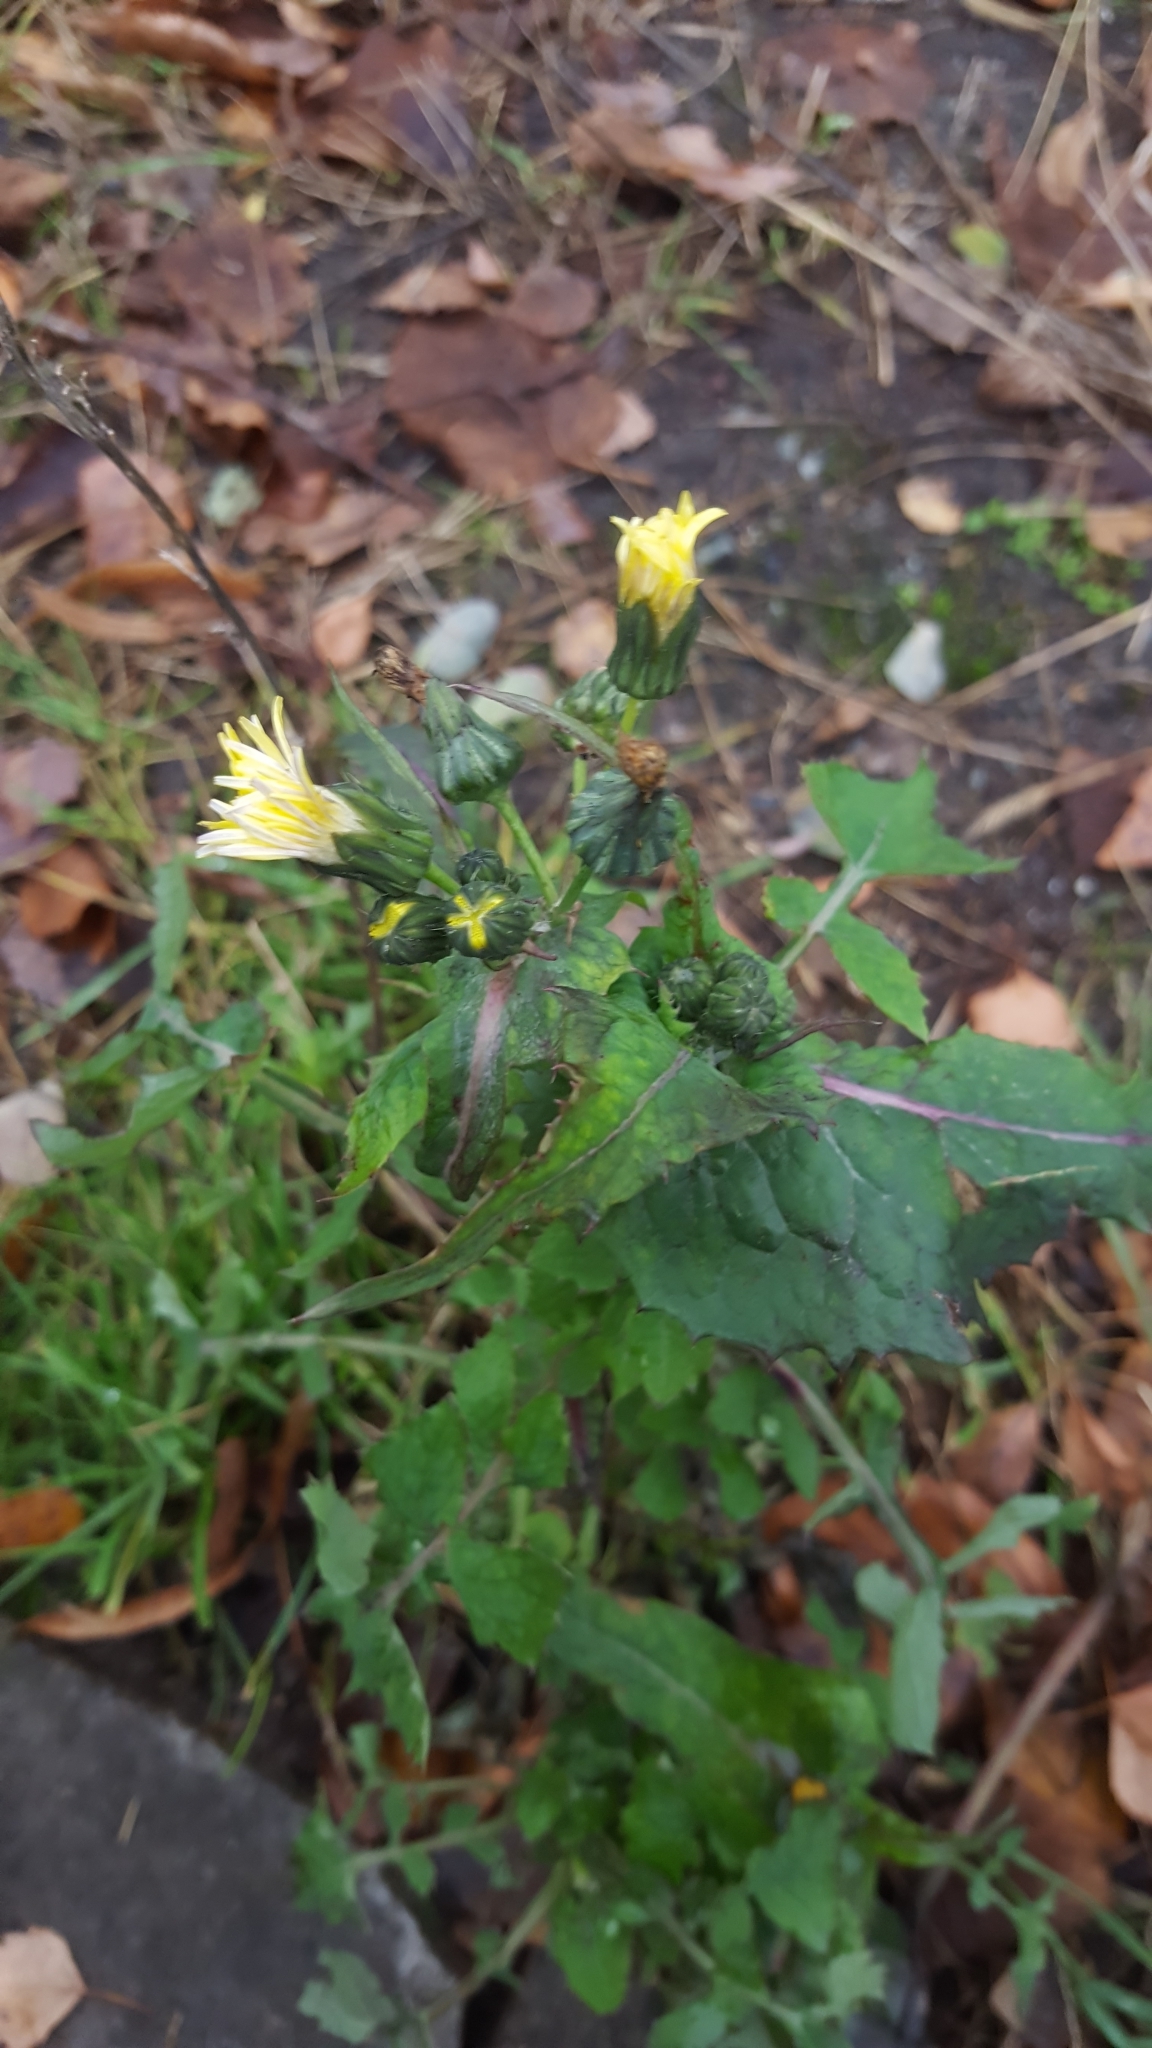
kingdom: Plantae
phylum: Tracheophyta
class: Magnoliopsida
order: Asterales
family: Asteraceae
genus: Sonchus
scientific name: Sonchus oleraceus
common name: Common sowthistle
